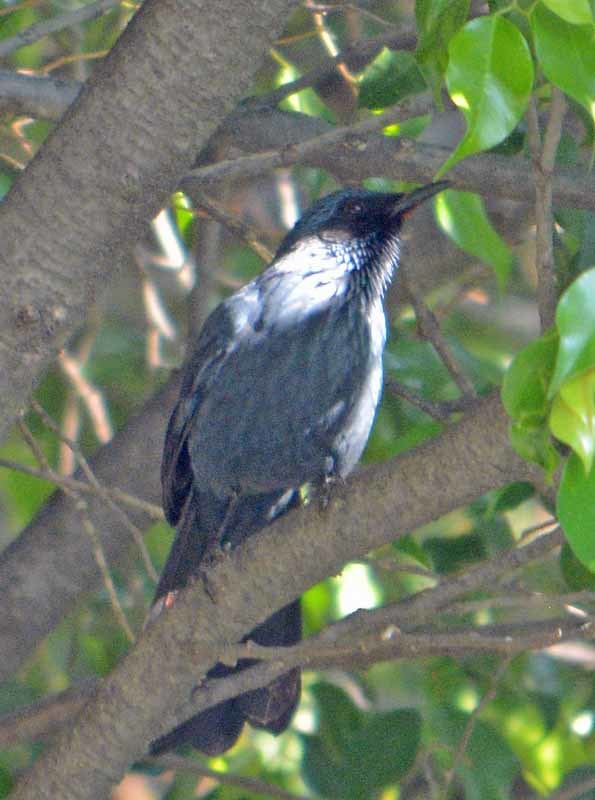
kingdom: Animalia
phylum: Chordata
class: Aves
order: Passeriformes
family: Mimidae
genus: Melanotis
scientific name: Melanotis caerulescens
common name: Blue mockingbird
